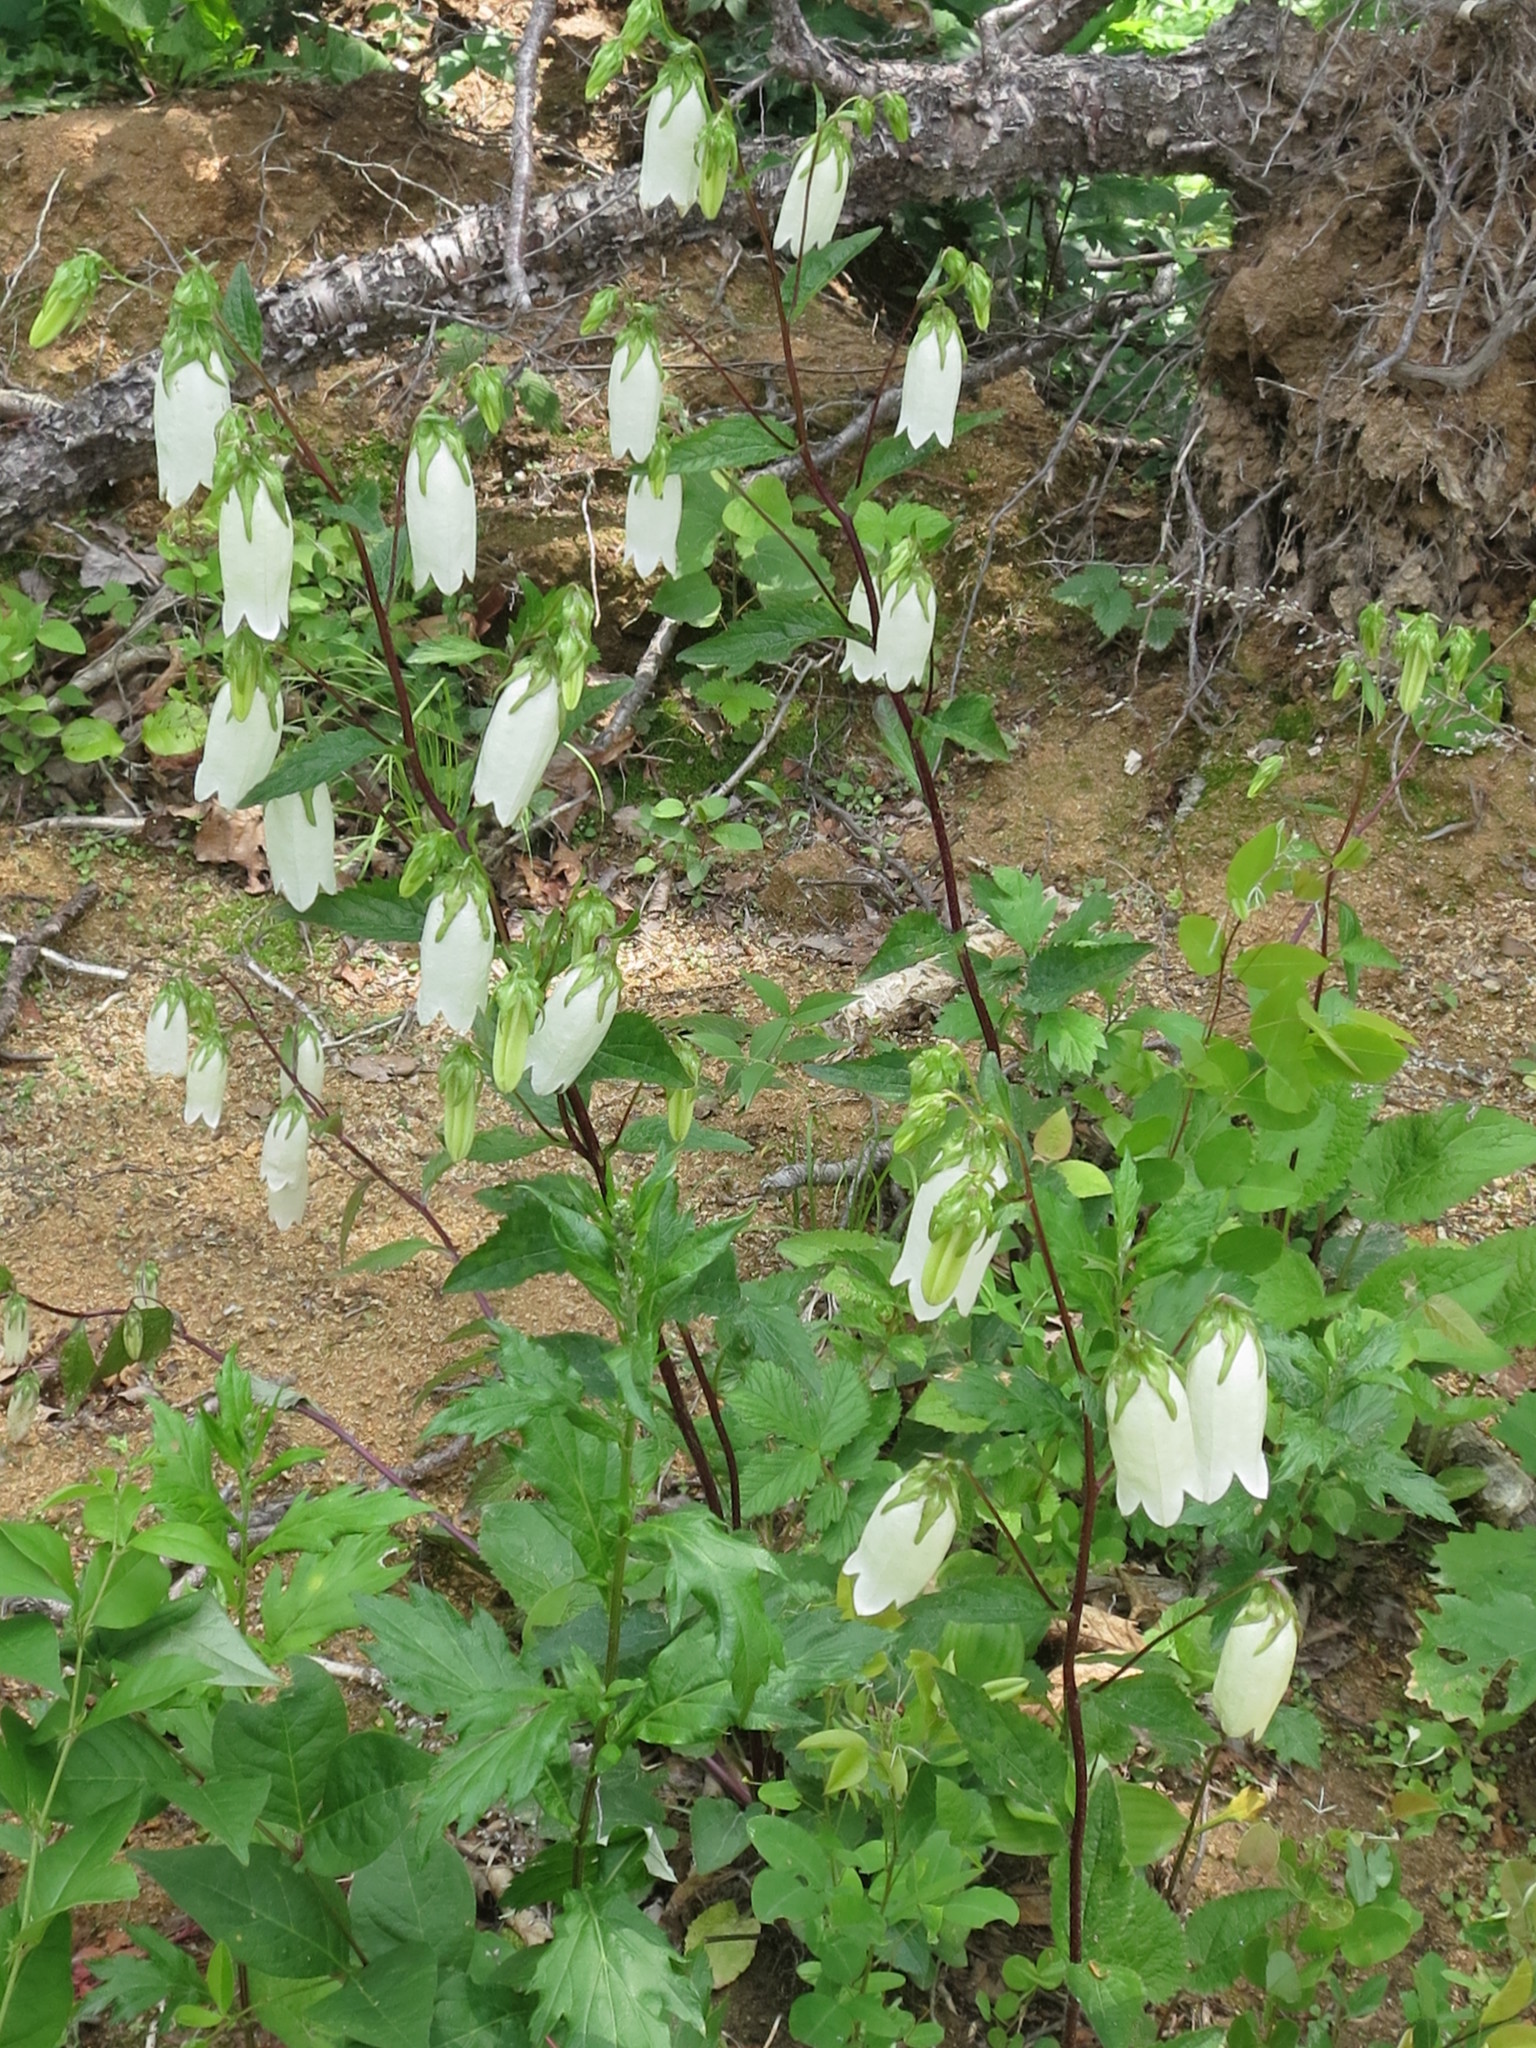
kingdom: Plantae
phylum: Tracheophyta
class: Magnoliopsida
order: Asterales
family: Campanulaceae
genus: Campanula
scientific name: Campanula punctata
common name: Spotted bellflower
